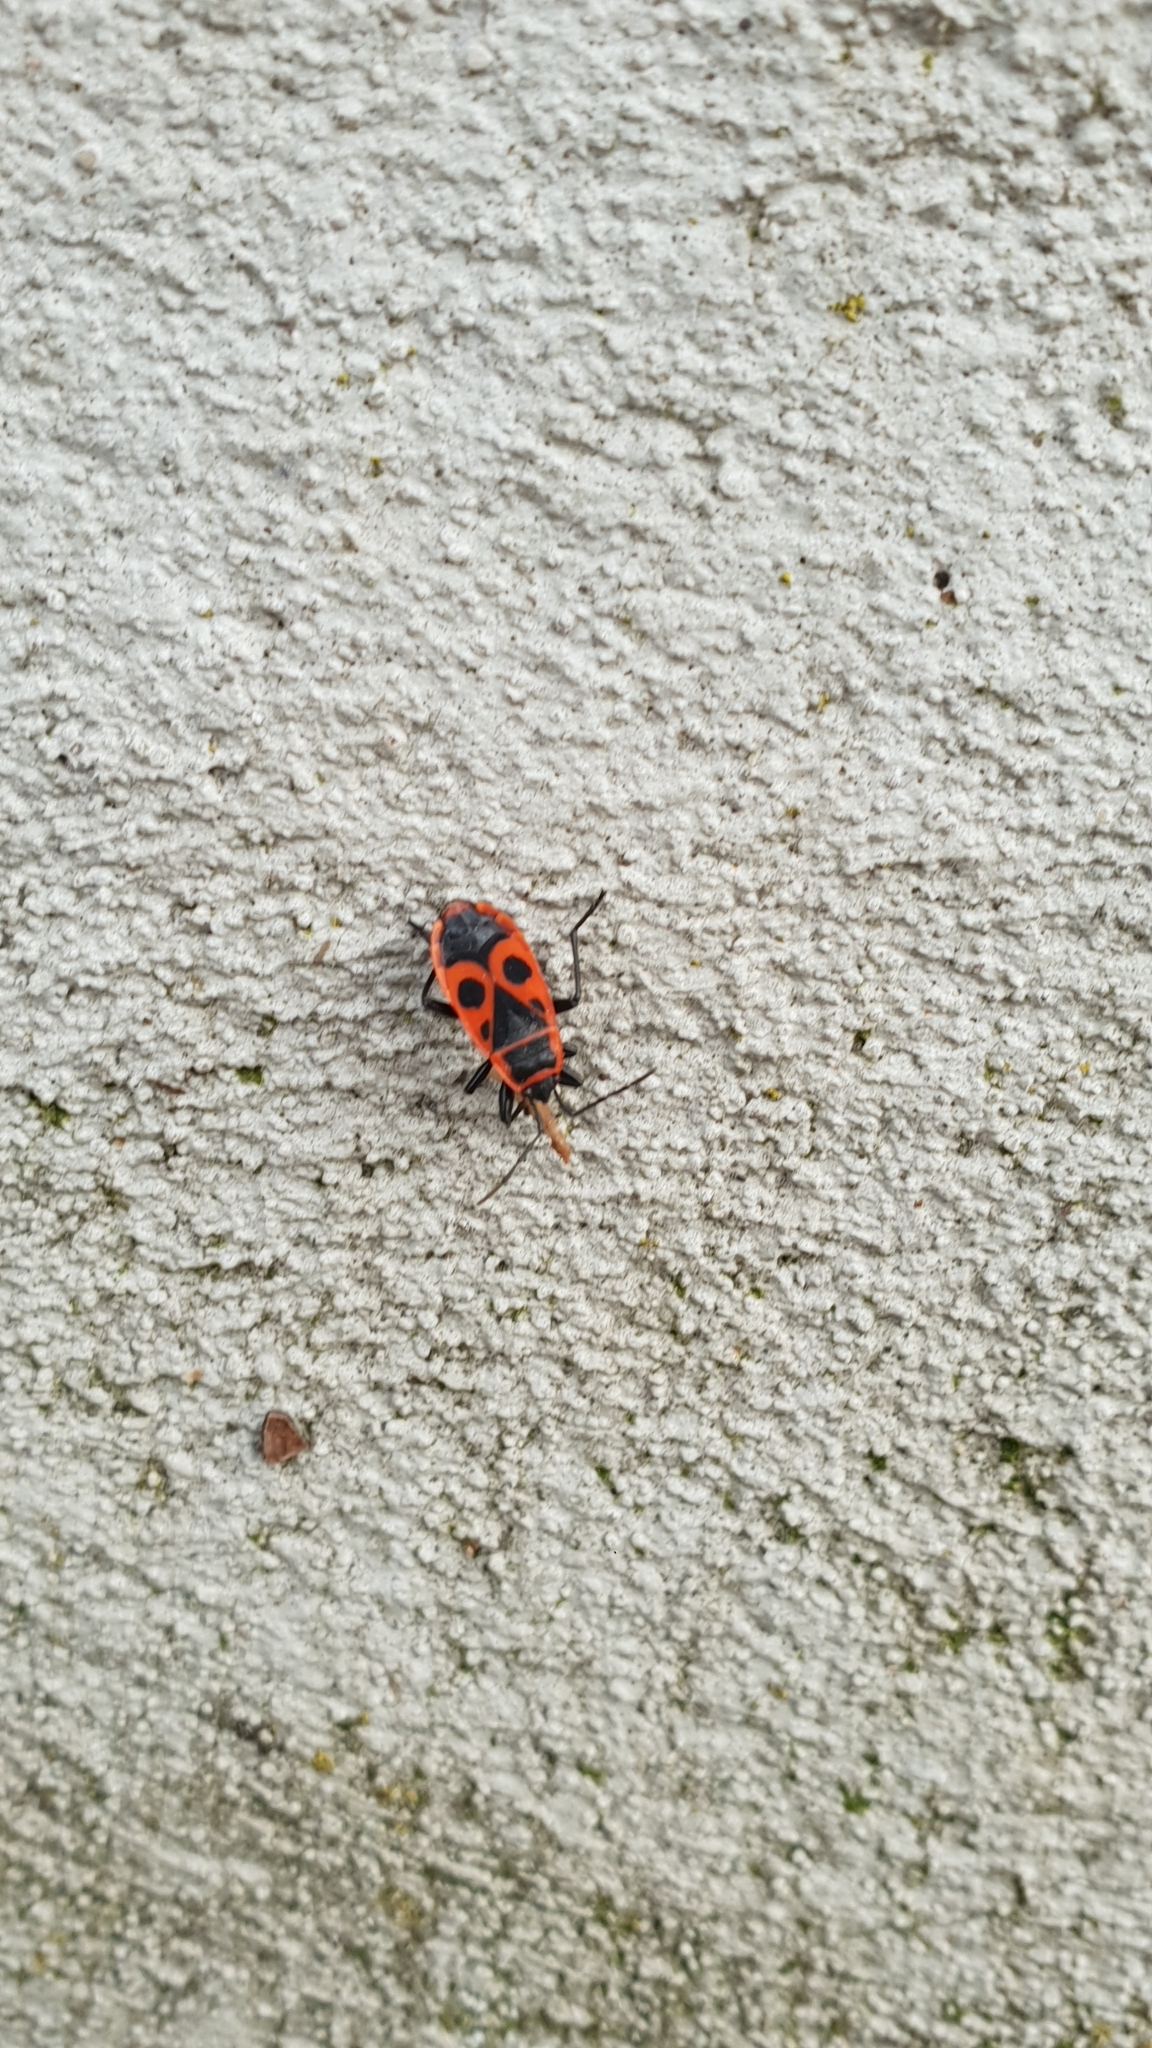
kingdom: Animalia
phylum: Arthropoda
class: Insecta
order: Hemiptera
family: Pyrrhocoridae
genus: Pyrrhocoris
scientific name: Pyrrhocoris apterus
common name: Firebug
